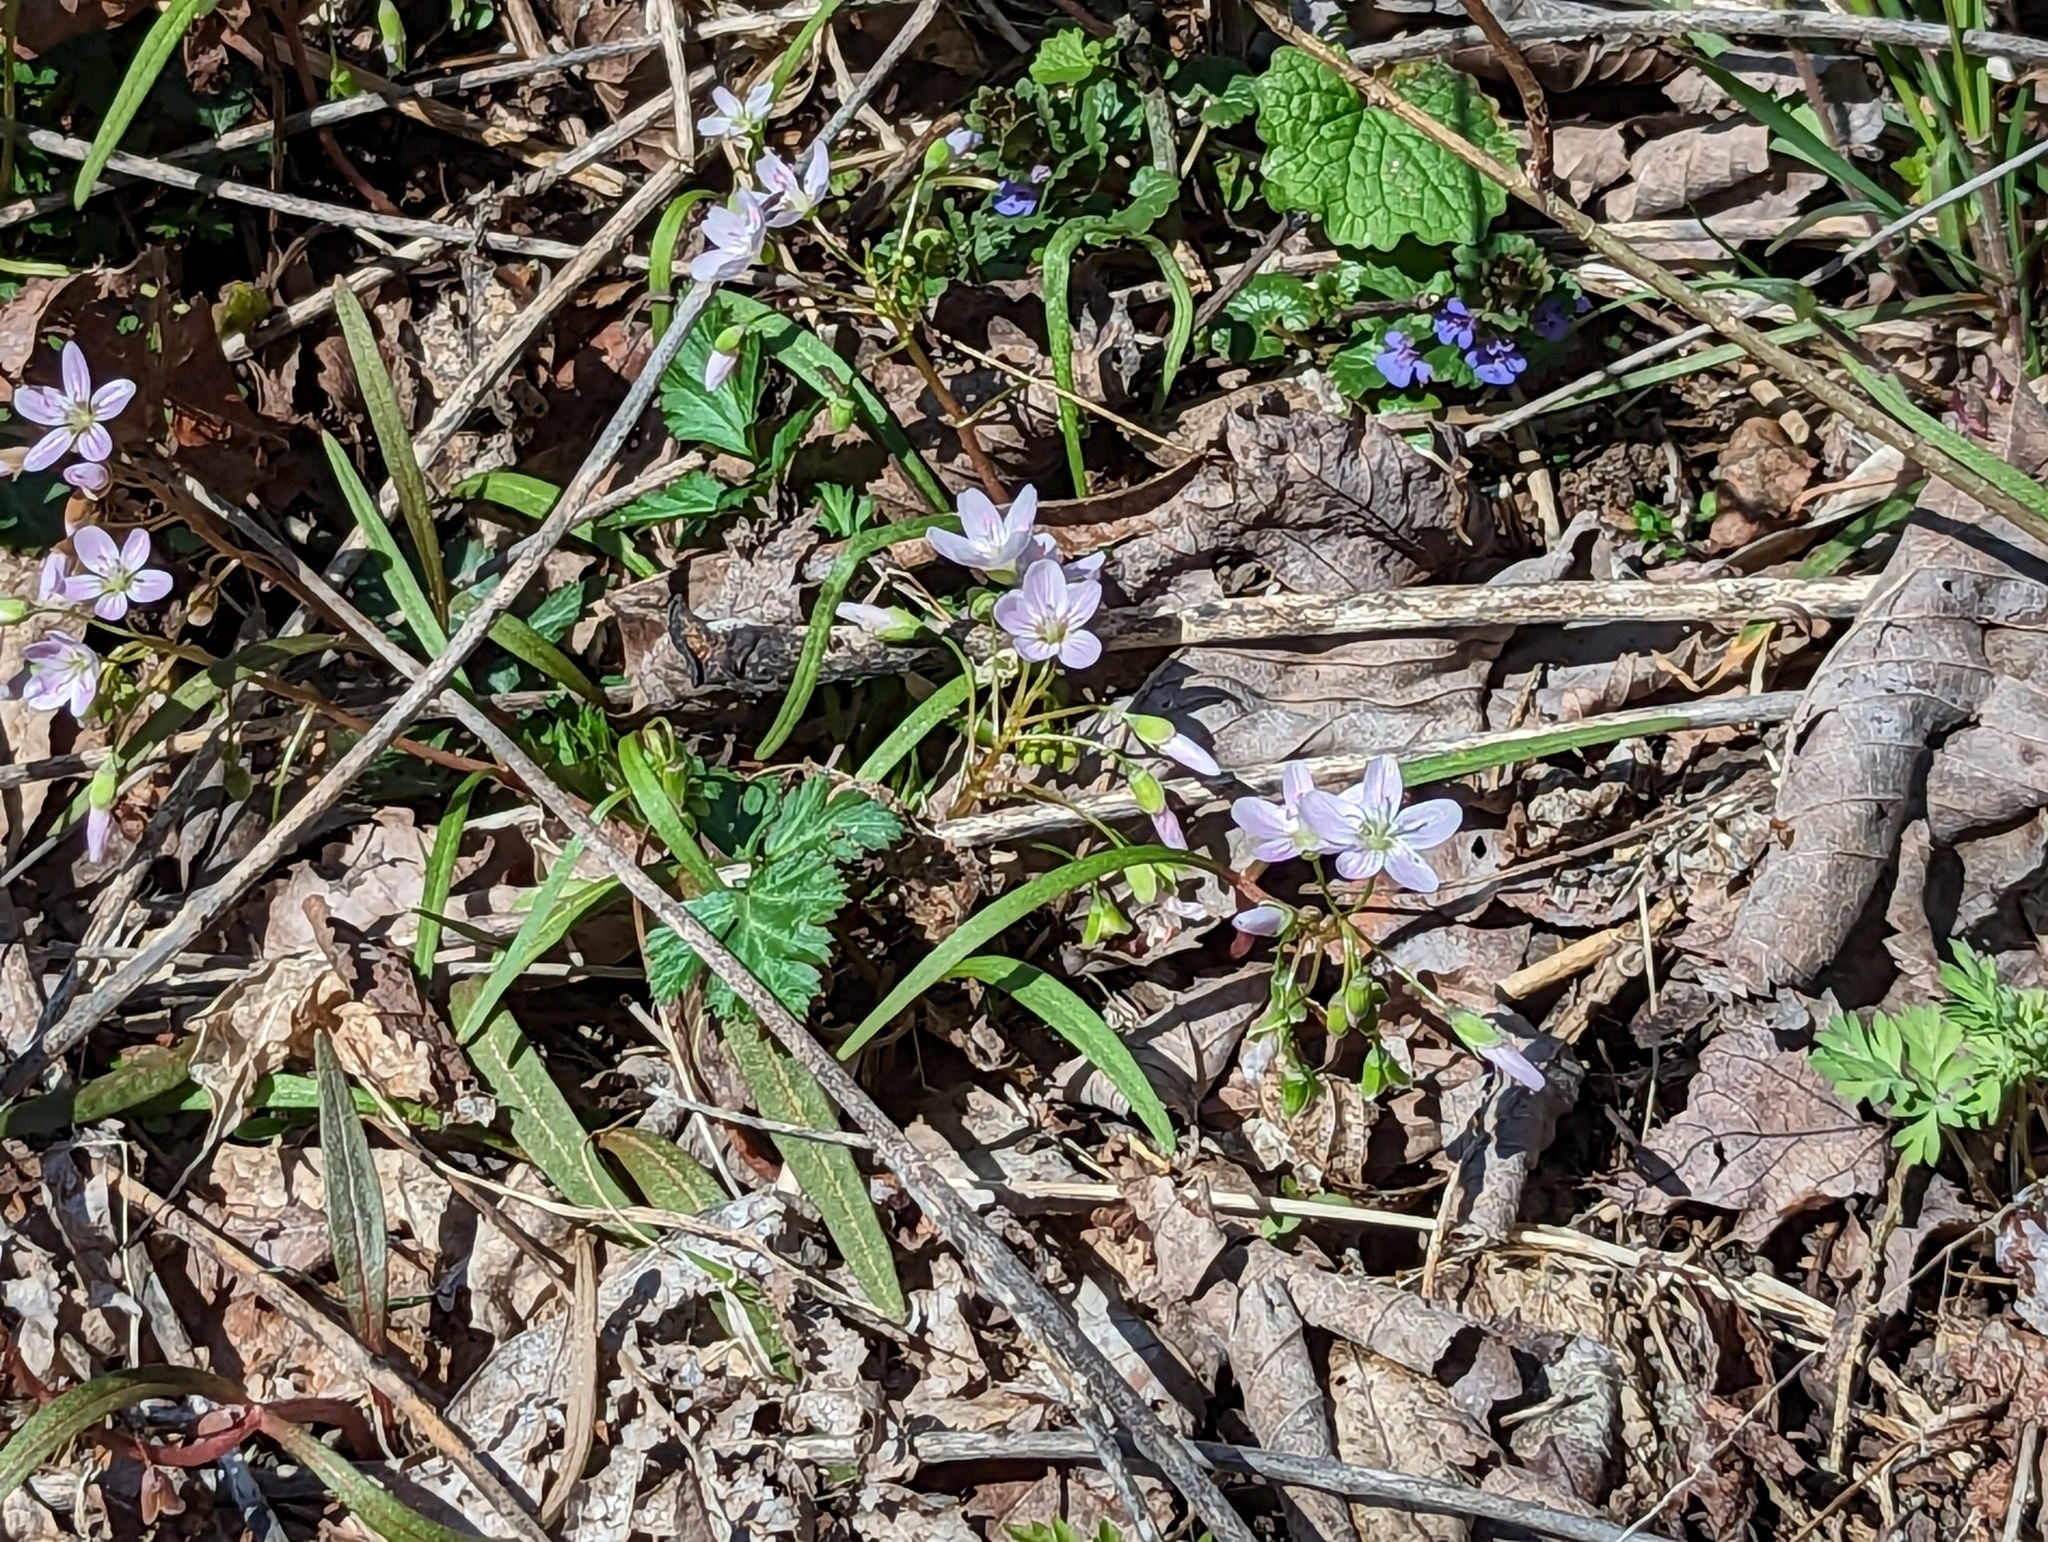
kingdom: Plantae
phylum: Tracheophyta
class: Magnoliopsida
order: Caryophyllales
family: Montiaceae
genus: Claytonia
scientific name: Claytonia virginica
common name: Virginia springbeauty
